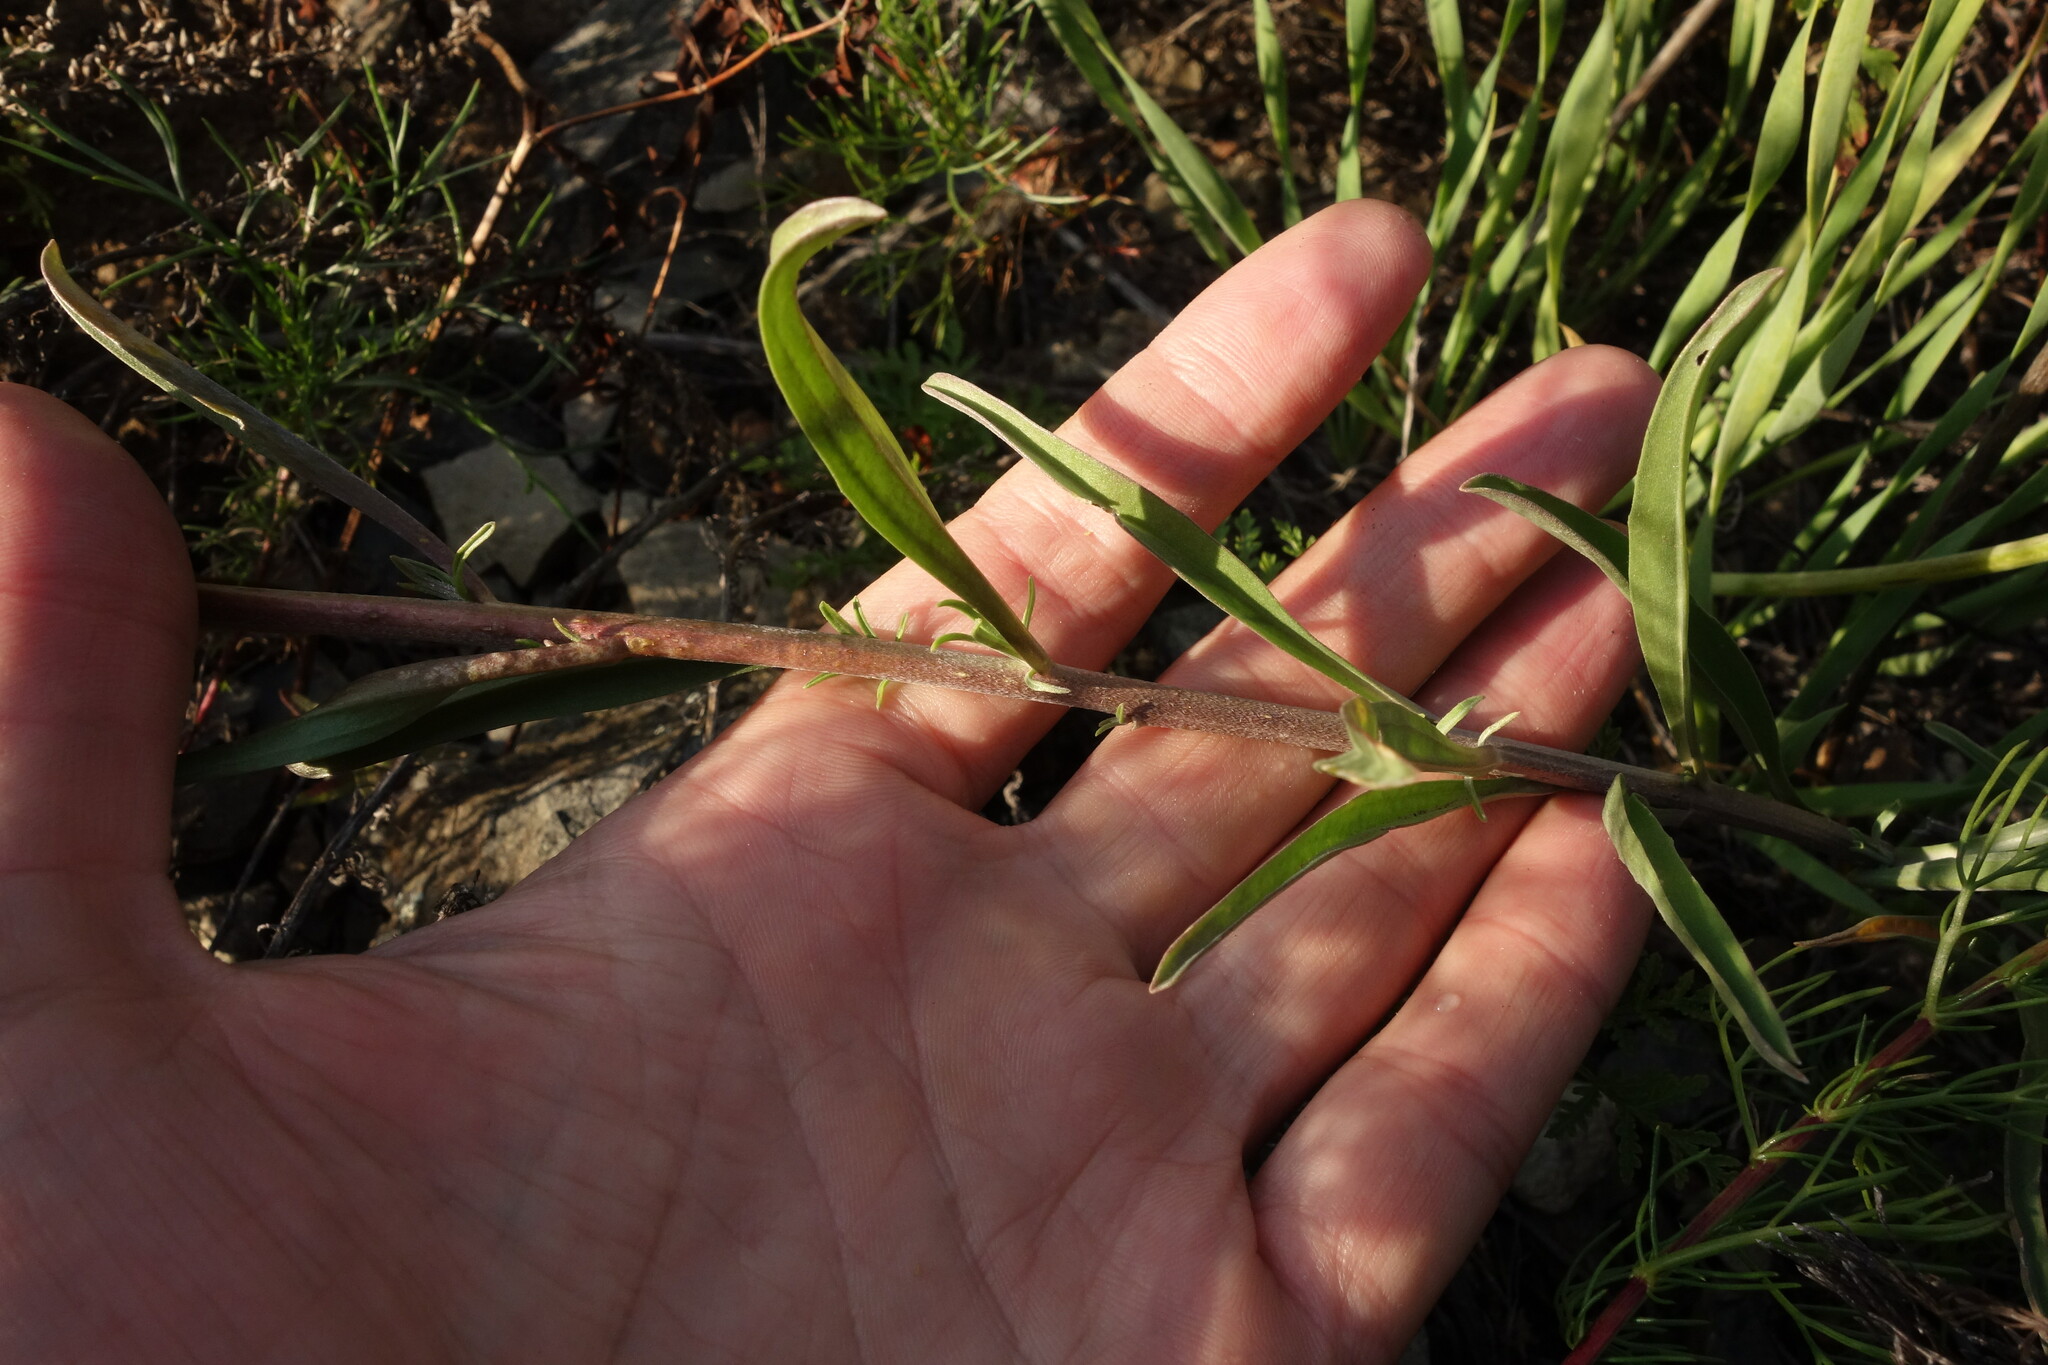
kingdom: Plantae
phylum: Tracheophyta
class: Magnoliopsida
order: Brassicales
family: Brassicaceae
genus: Erysimum
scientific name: Erysimum flavum
